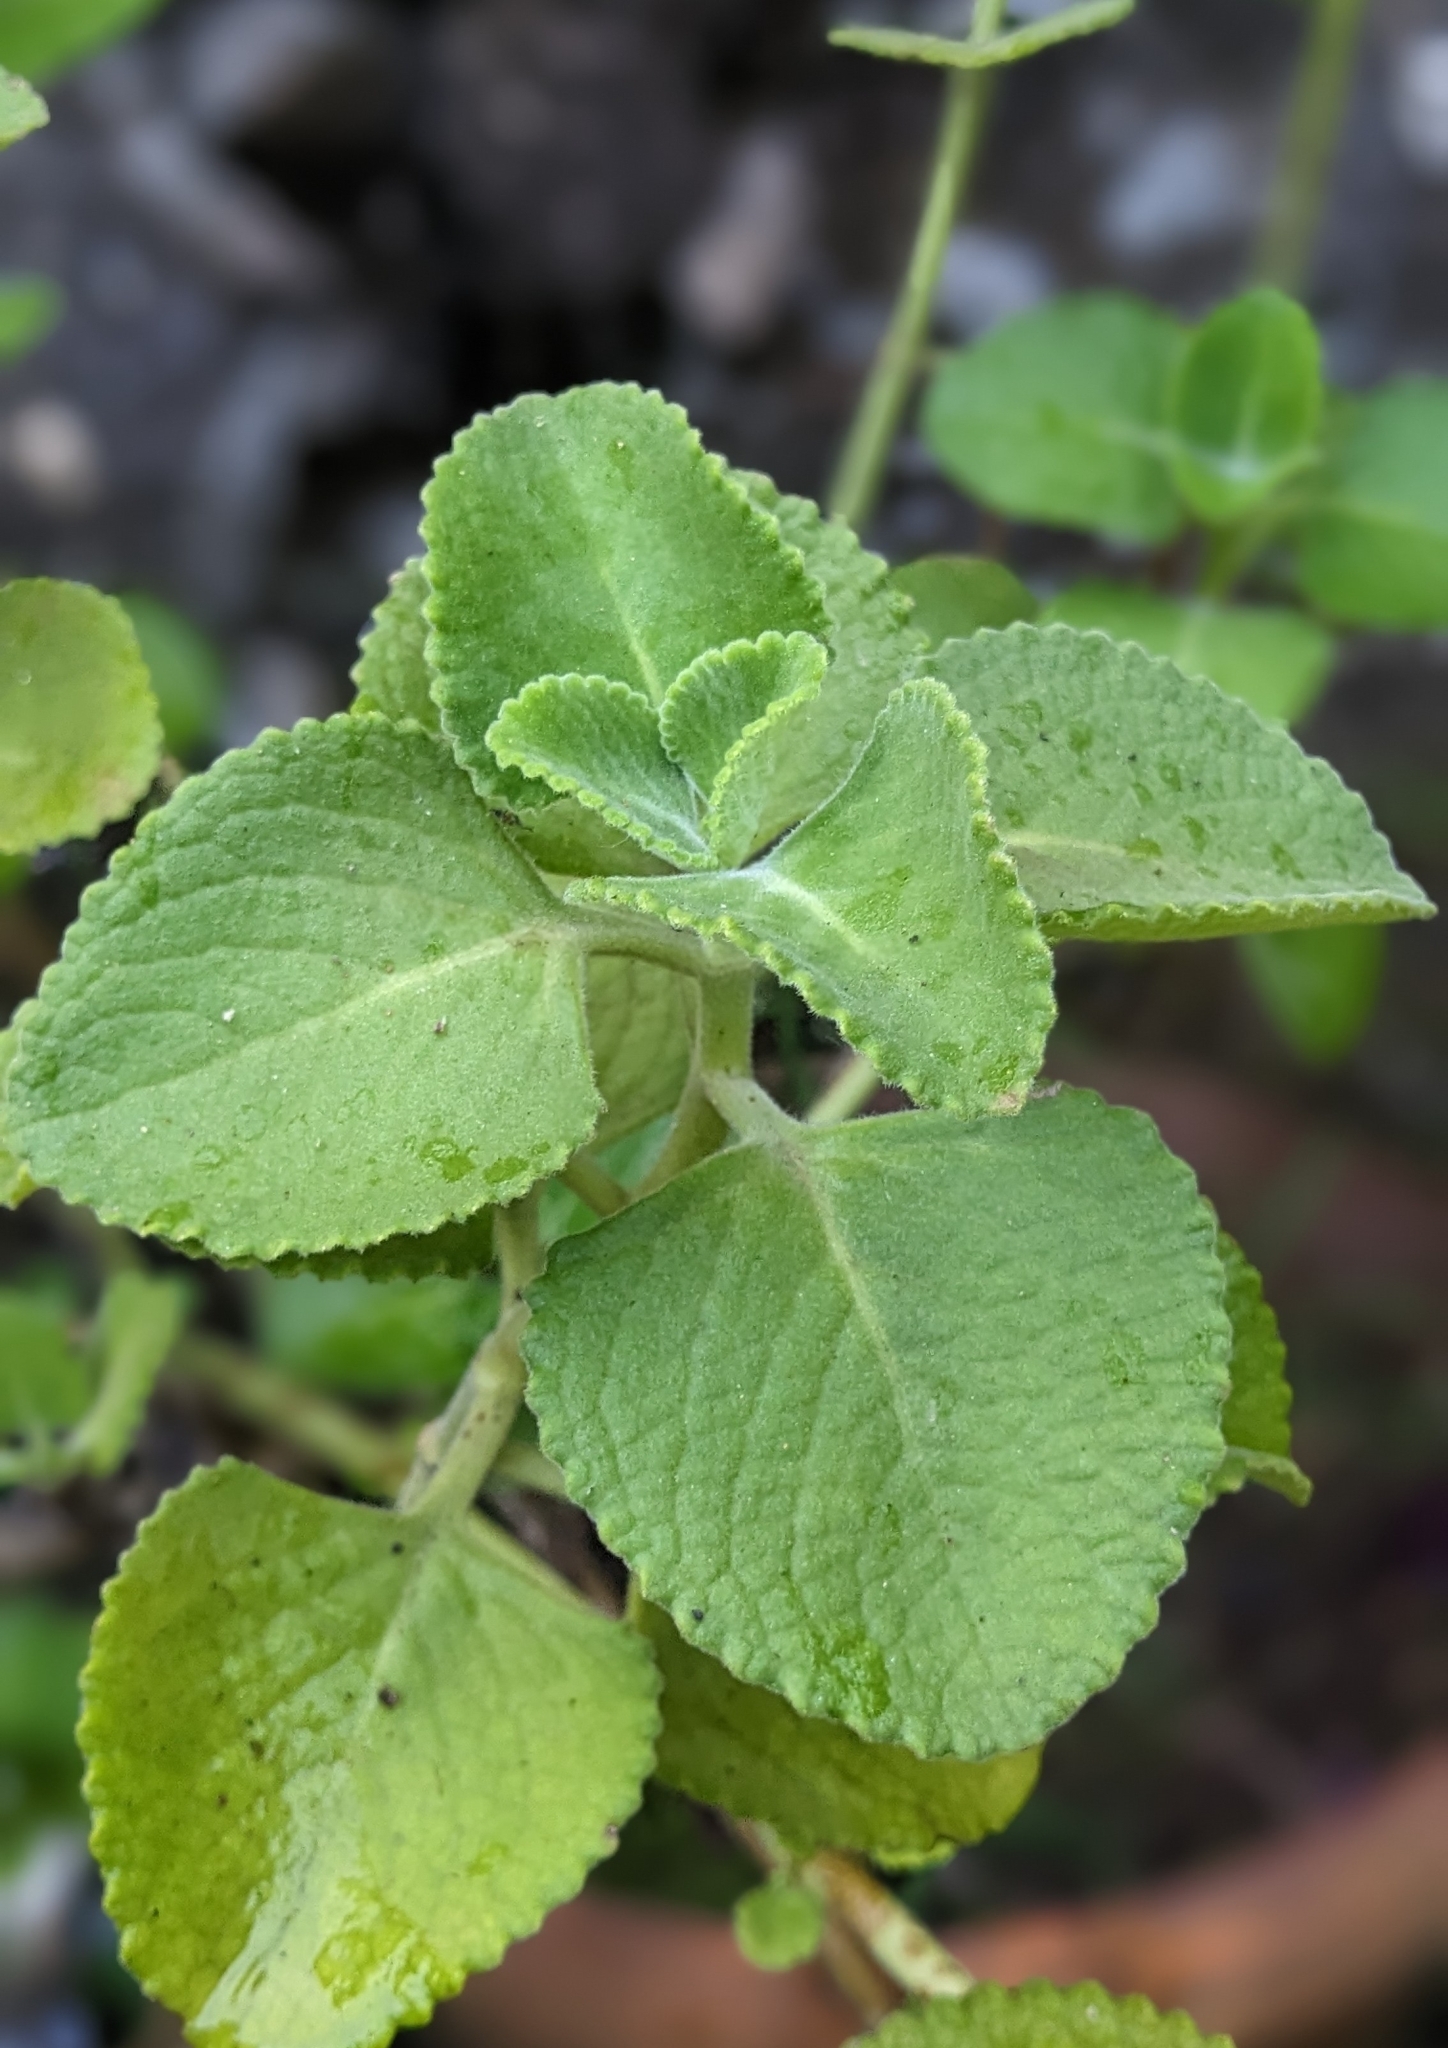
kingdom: Plantae
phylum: Tracheophyta
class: Magnoliopsida
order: Lamiales
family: Lamiaceae
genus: Coleus
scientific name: Coleus amboinicus
